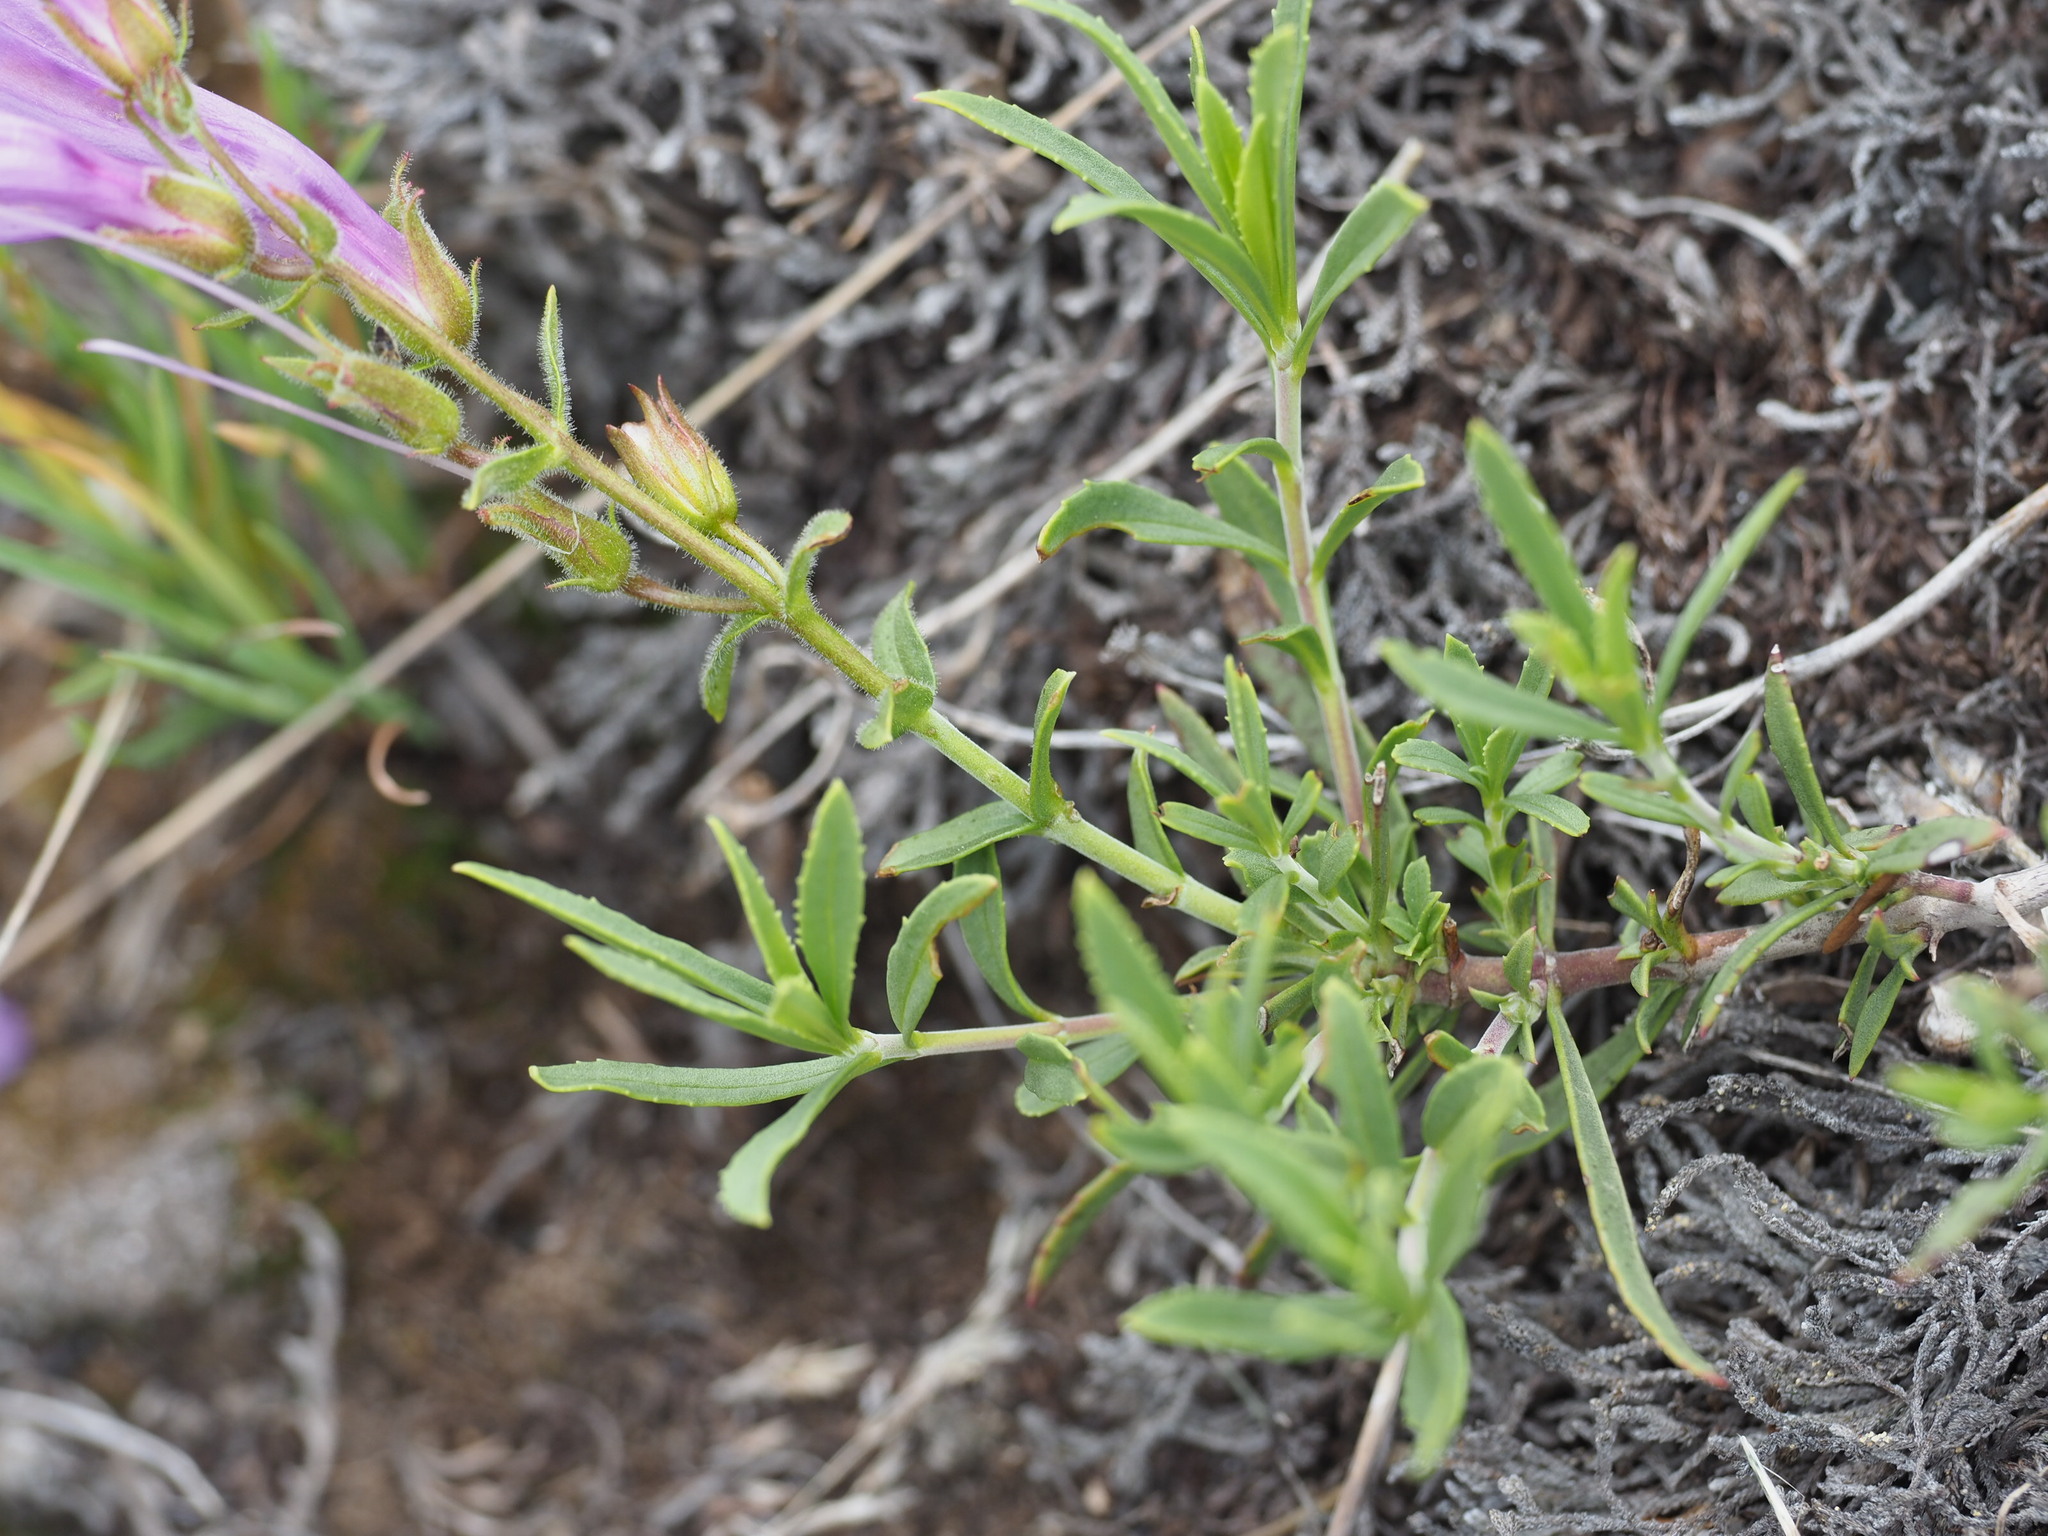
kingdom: Plantae
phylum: Tracheophyta
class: Magnoliopsida
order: Lamiales
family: Plantaginaceae
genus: Penstemon
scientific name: Penstemon fruticosus
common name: Bush penstemon
